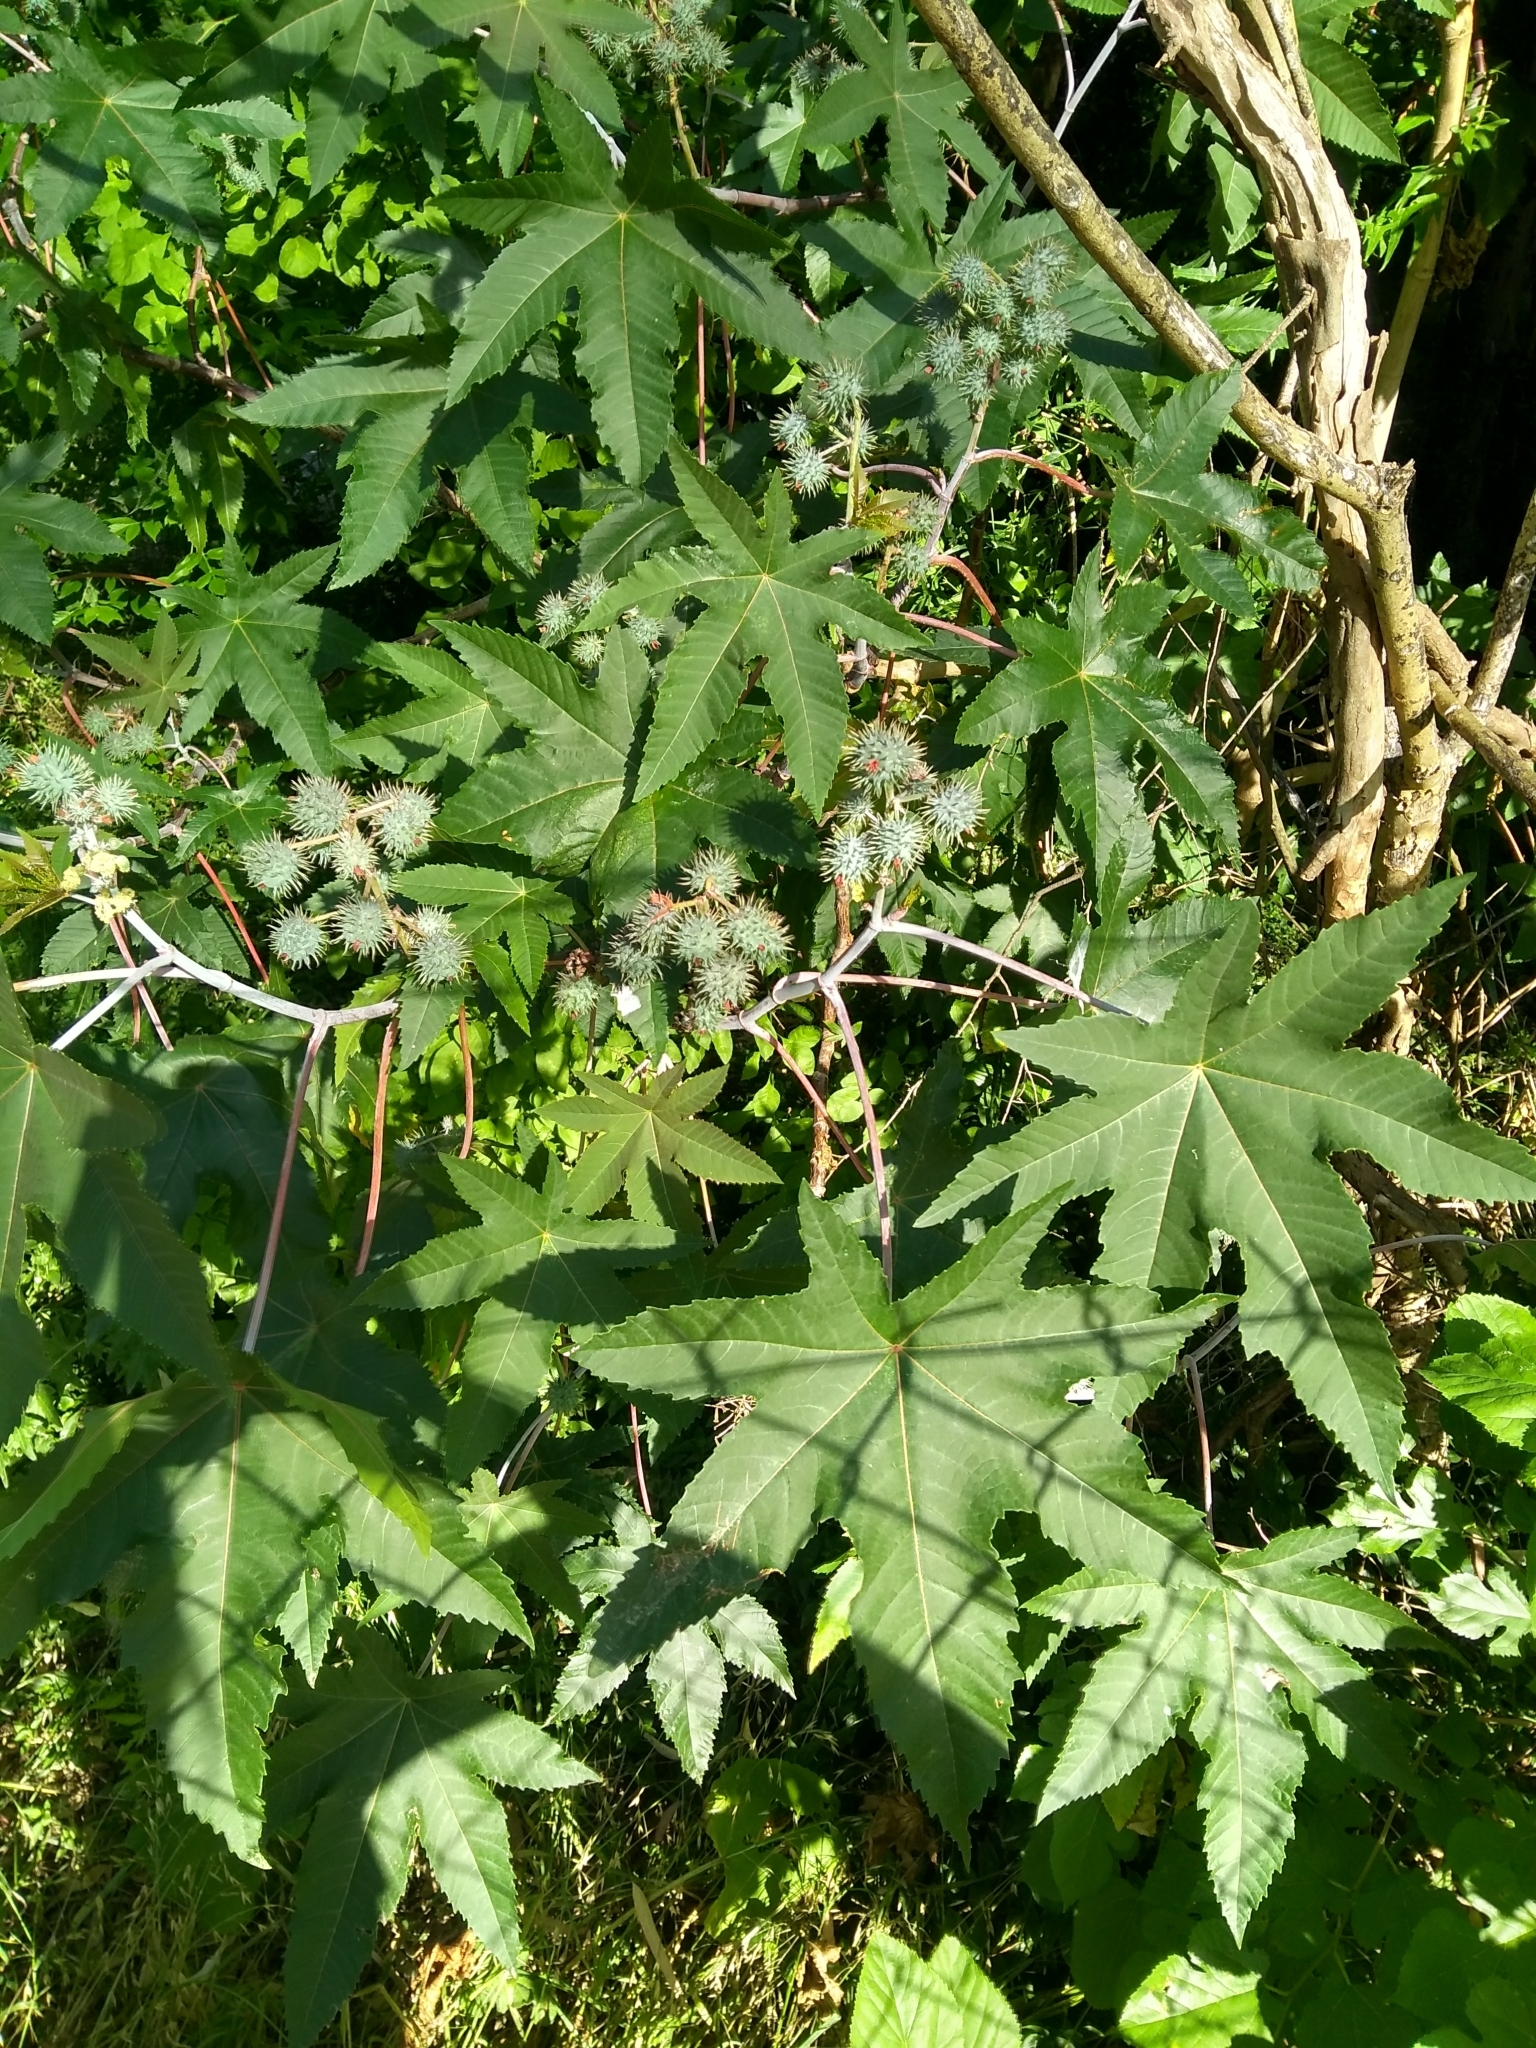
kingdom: Plantae
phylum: Tracheophyta
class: Magnoliopsida
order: Malpighiales
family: Euphorbiaceae
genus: Ricinus
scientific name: Ricinus communis
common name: Castor-oil-plant
